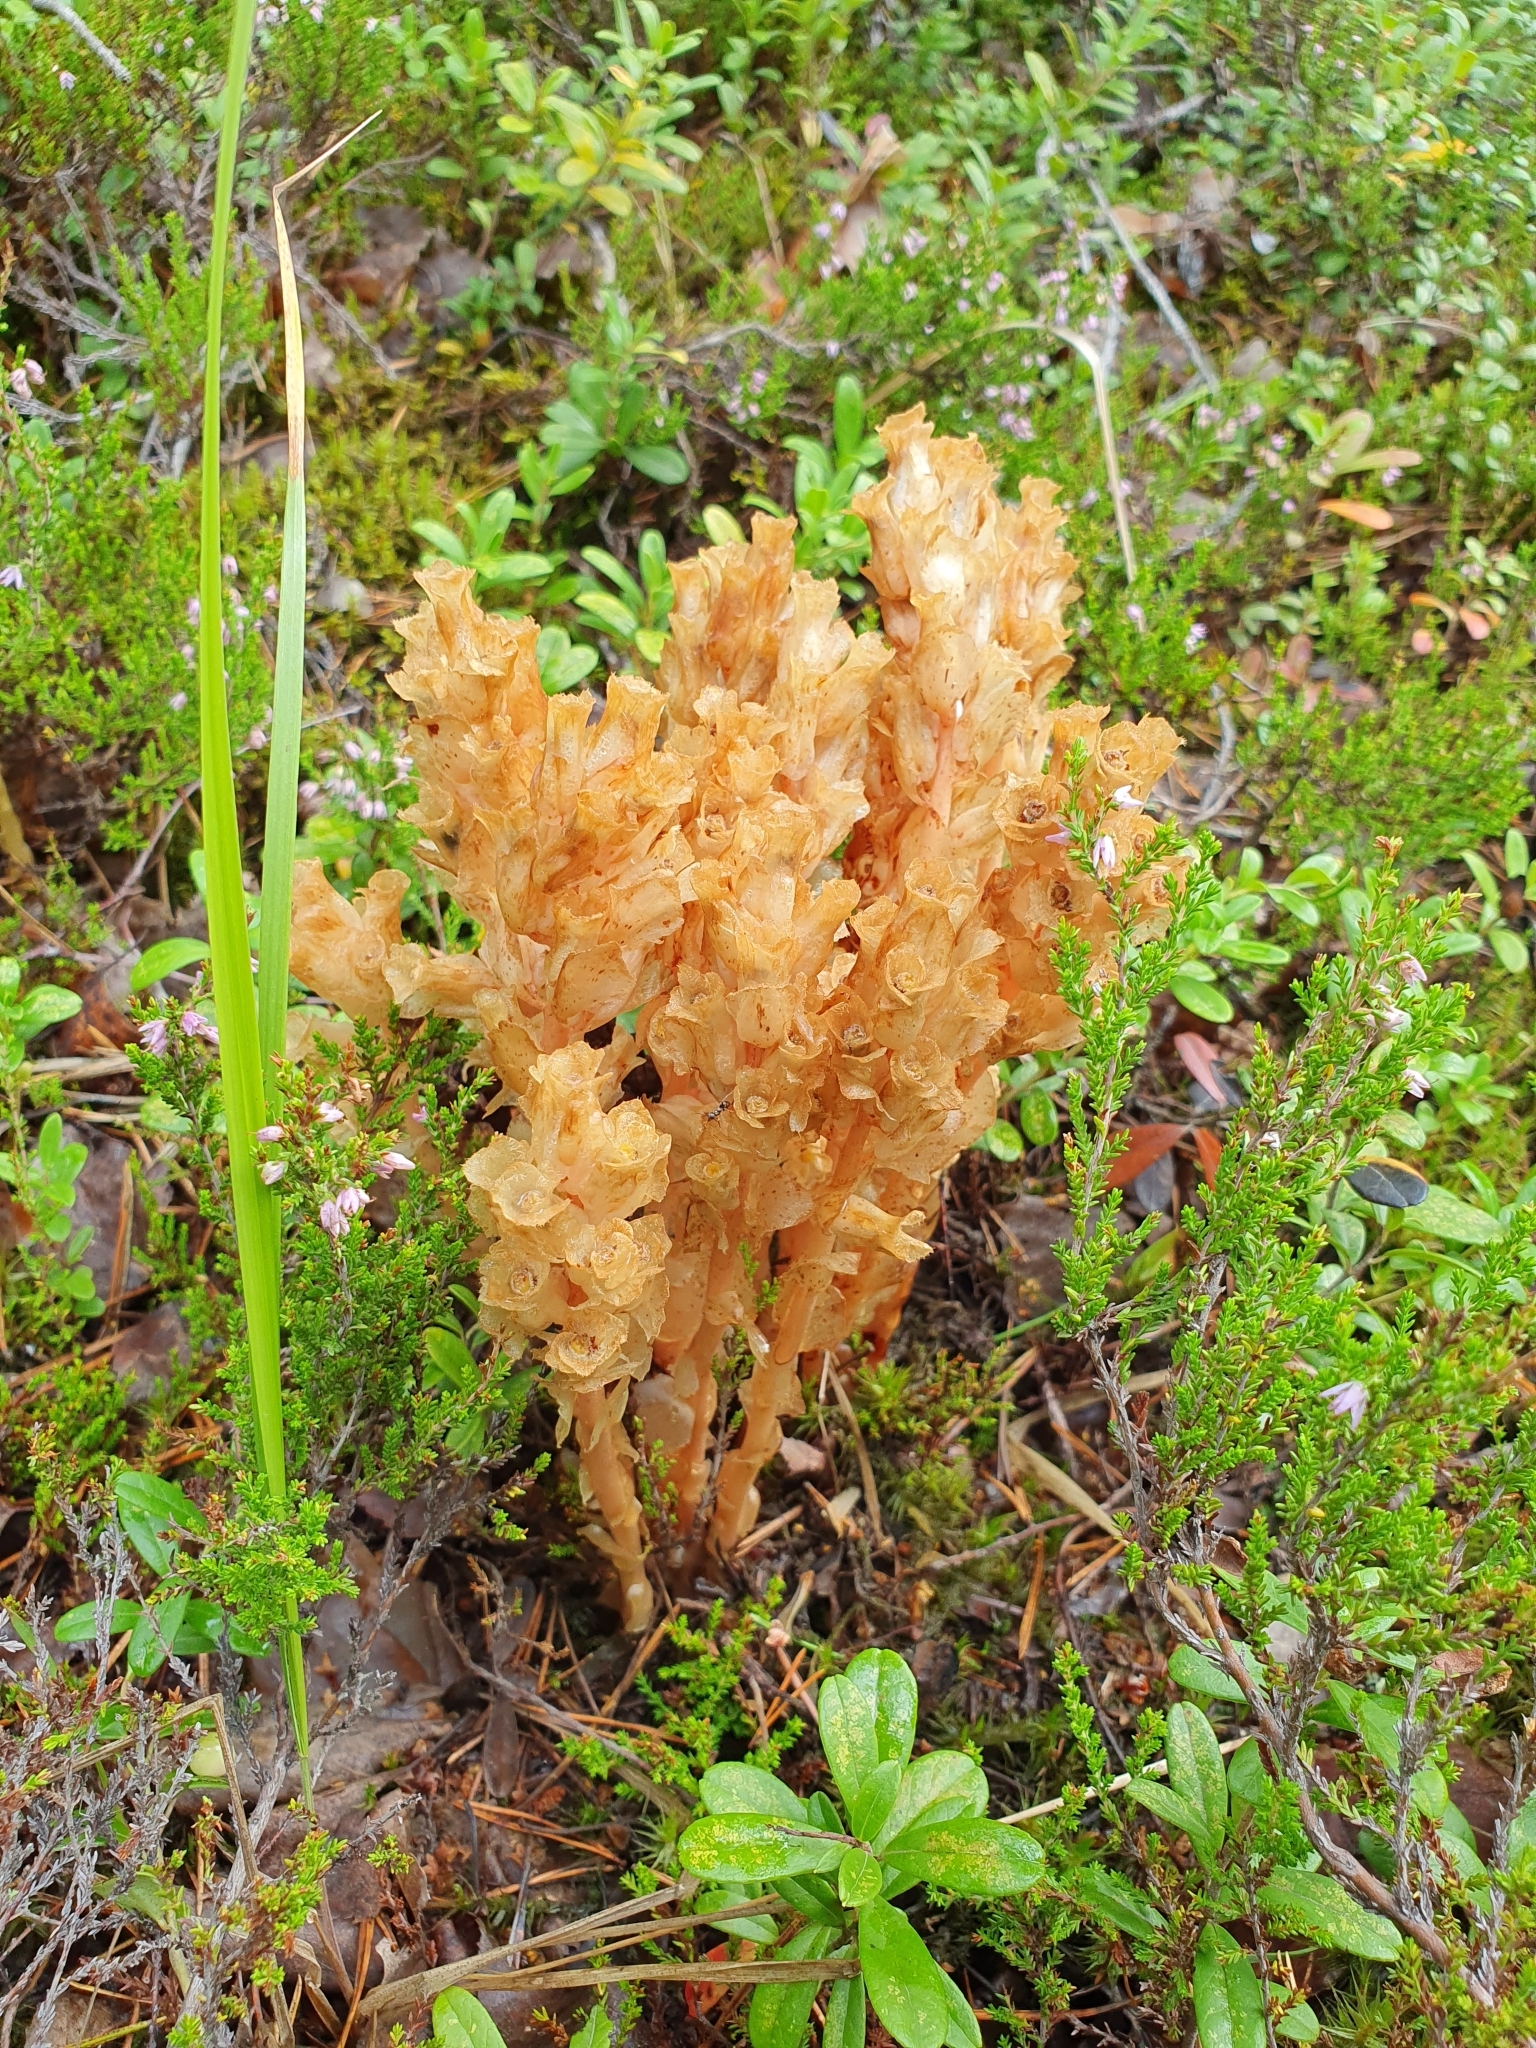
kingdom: Plantae
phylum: Tracheophyta
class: Magnoliopsida
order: Ericales
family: Ericaceae
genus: Hypopitys
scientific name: Hypopitys monotropa
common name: Yellow bird's-nest
